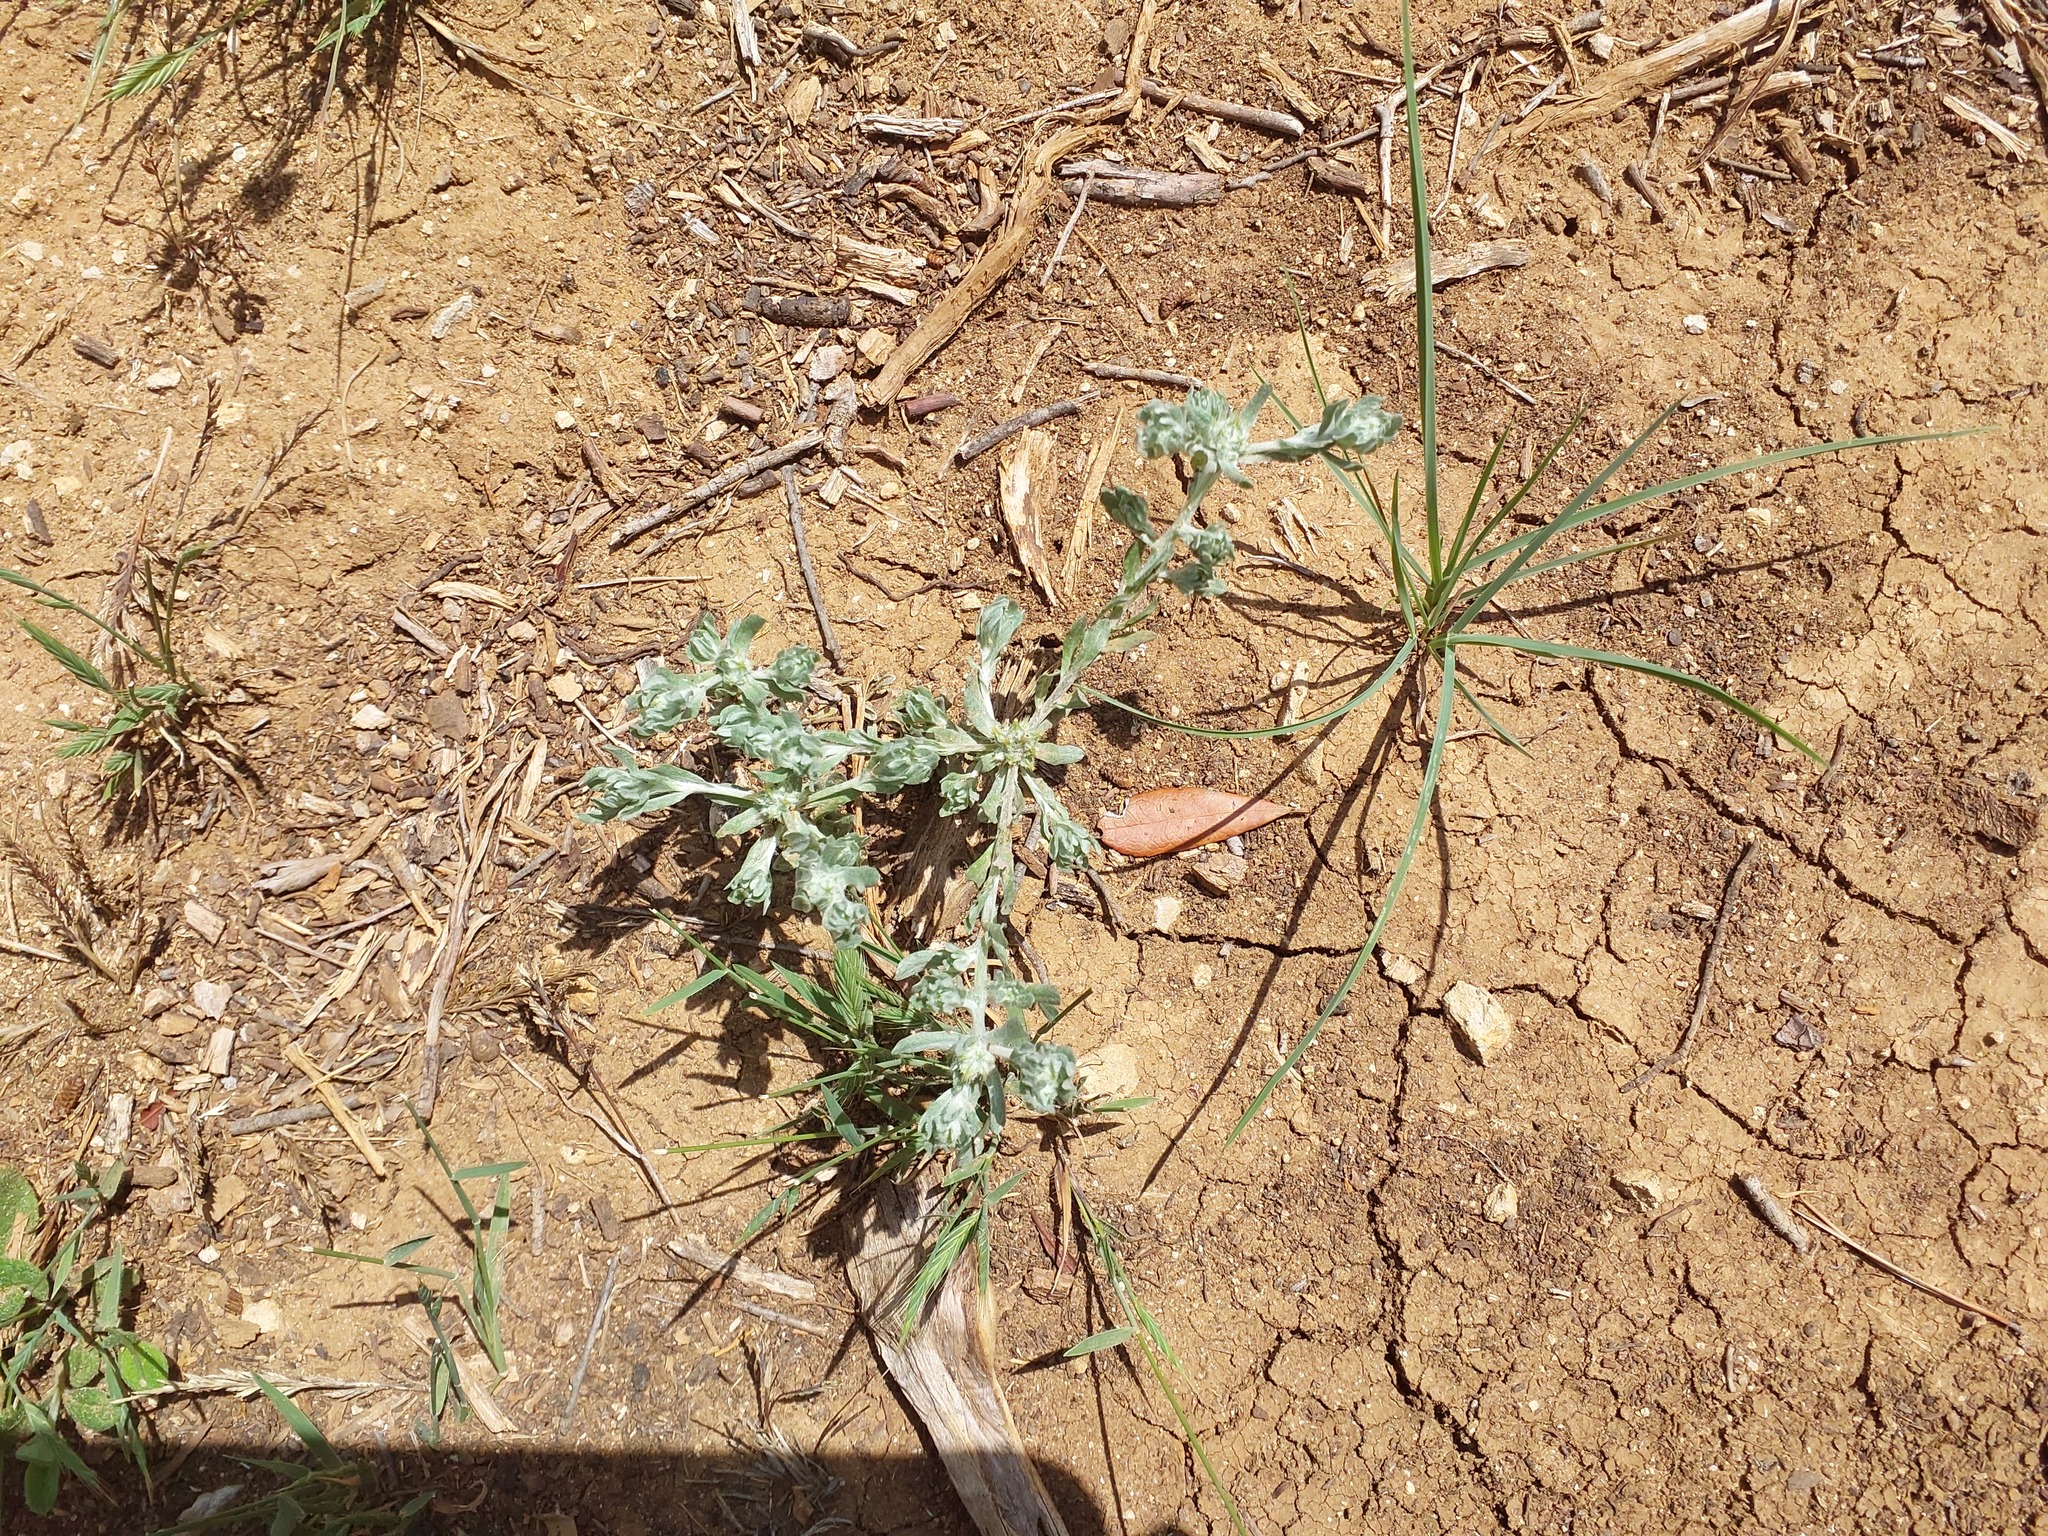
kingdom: Plantae
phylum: Tracheophyta
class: Magnoliopsida
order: Asterales
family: Asteraceae
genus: Filago
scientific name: Filago pyramidata
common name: Broad-leaved cudweed
